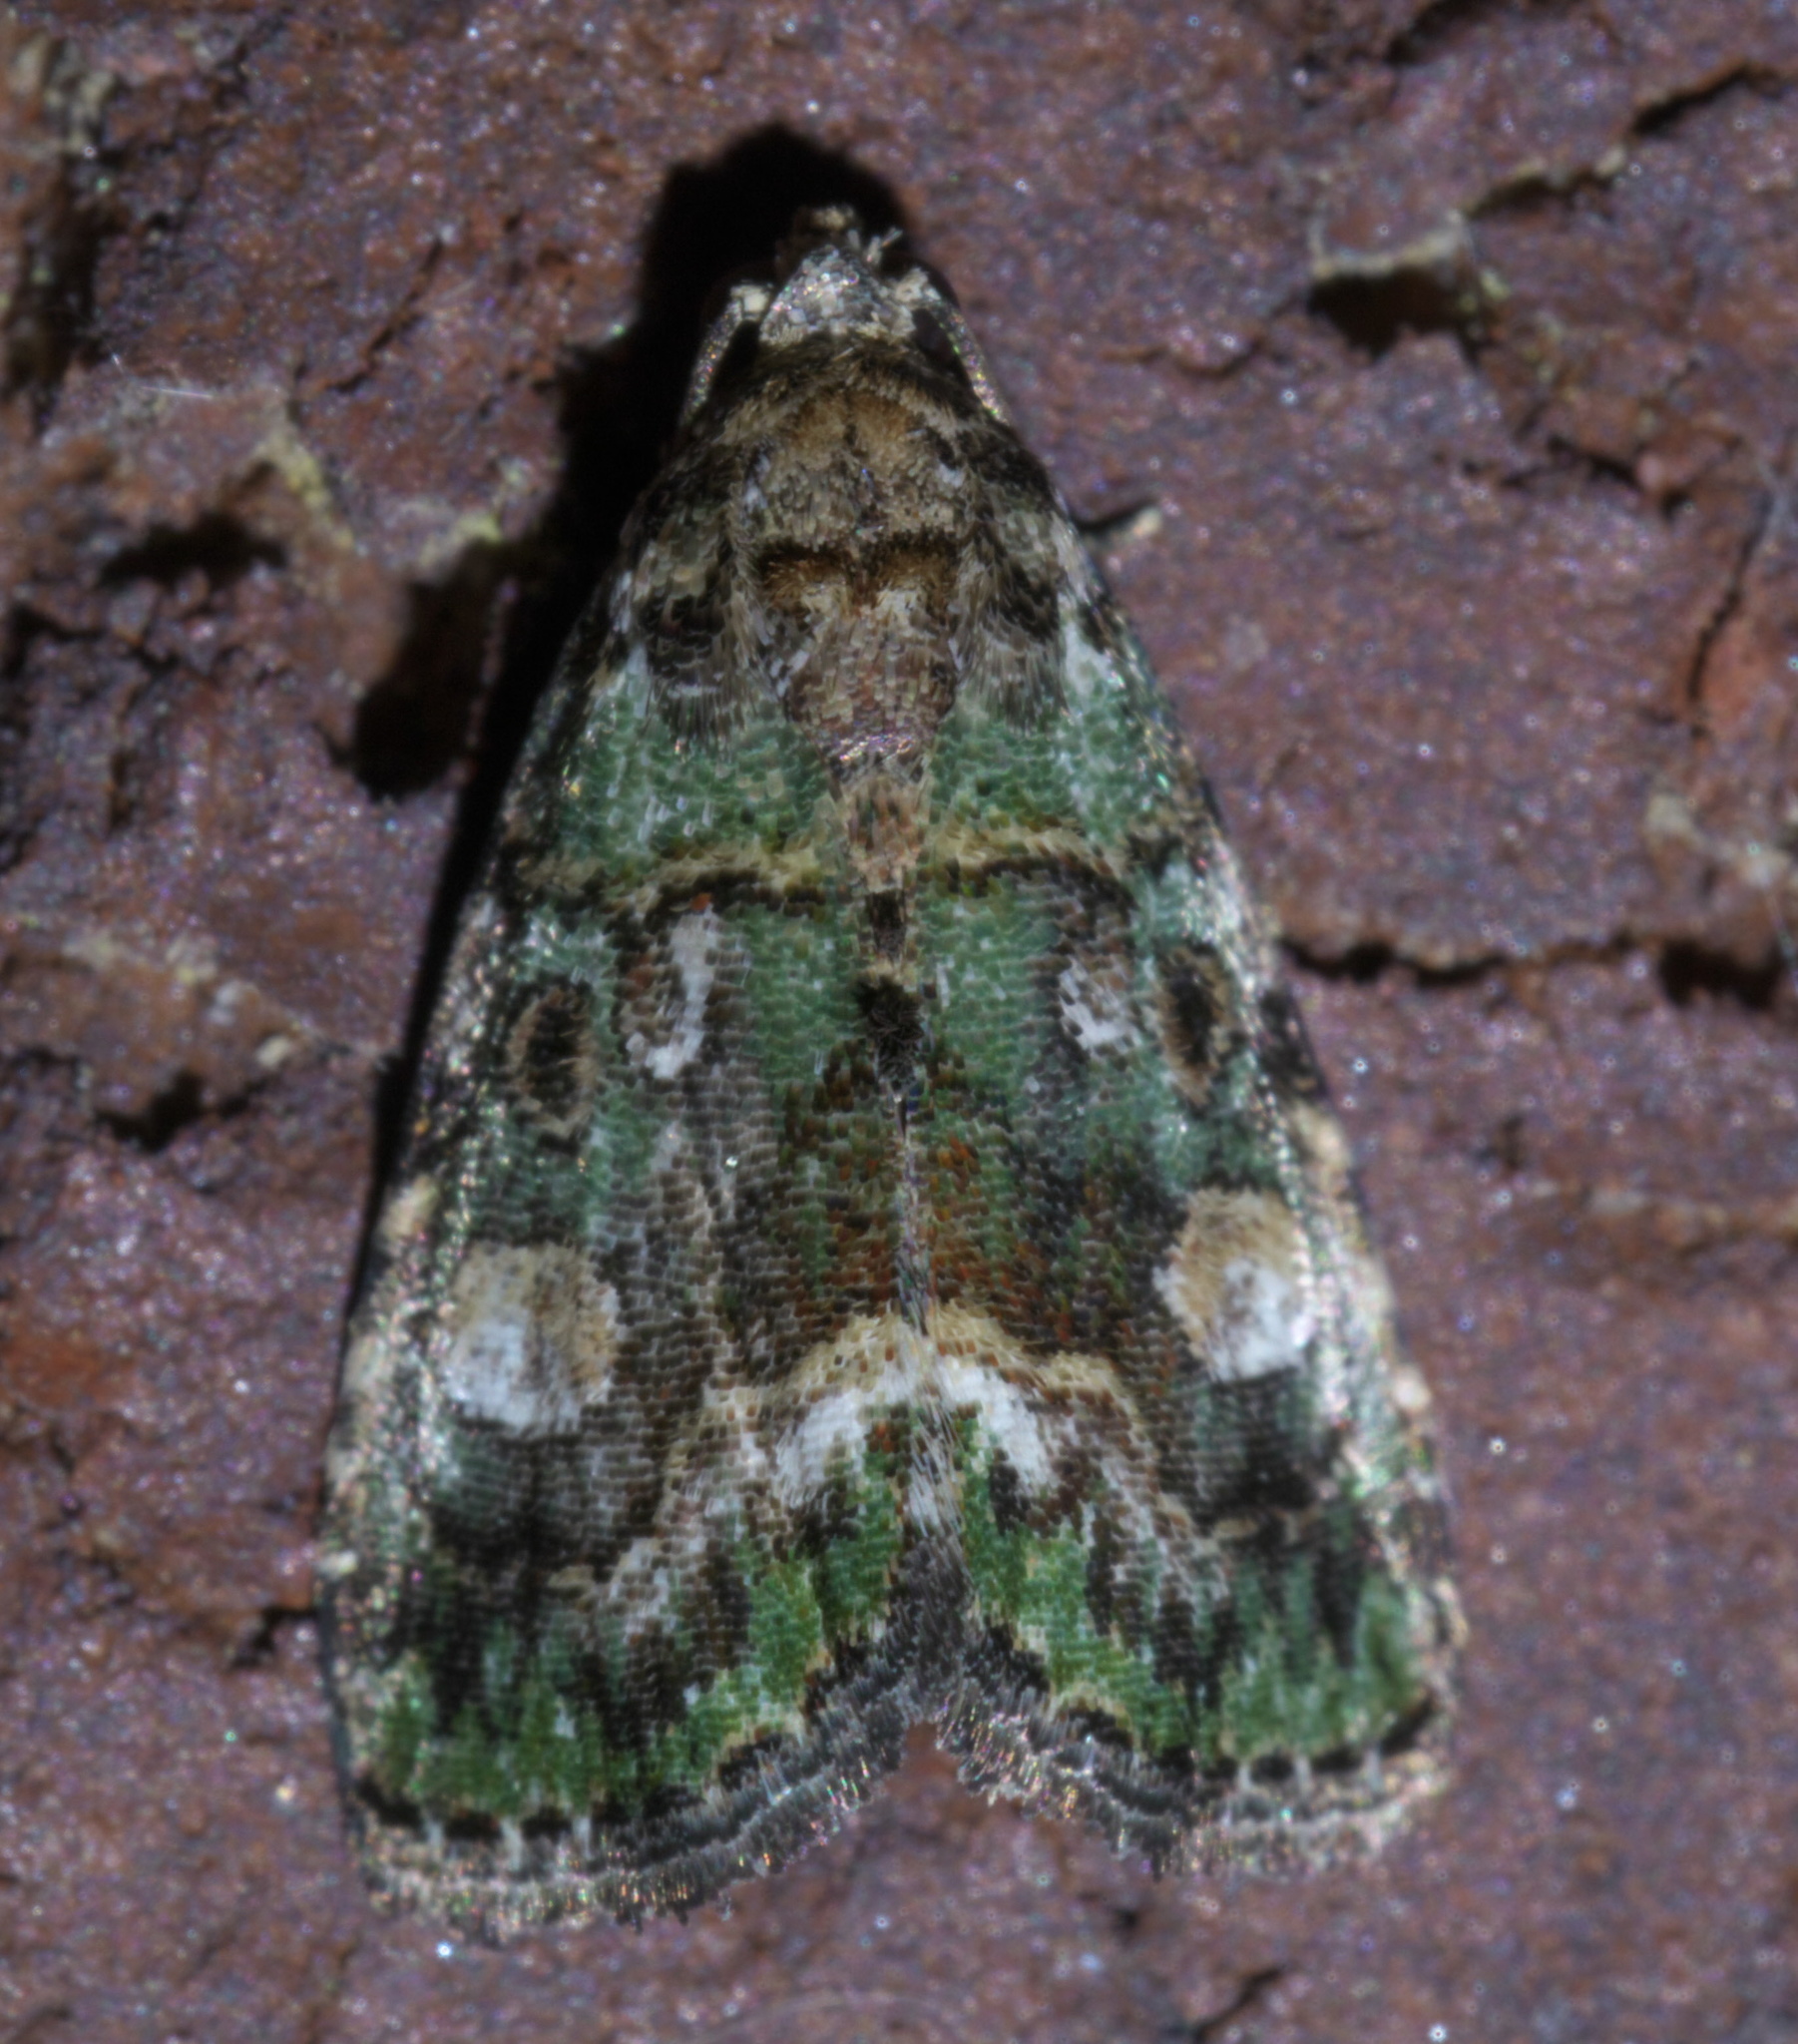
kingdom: Animalia
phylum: Arthropoda
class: Insecta
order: Lepidoptera
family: Noctuidae
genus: Lithacodia
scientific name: Lithacodia musta
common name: Small mossy glyph
